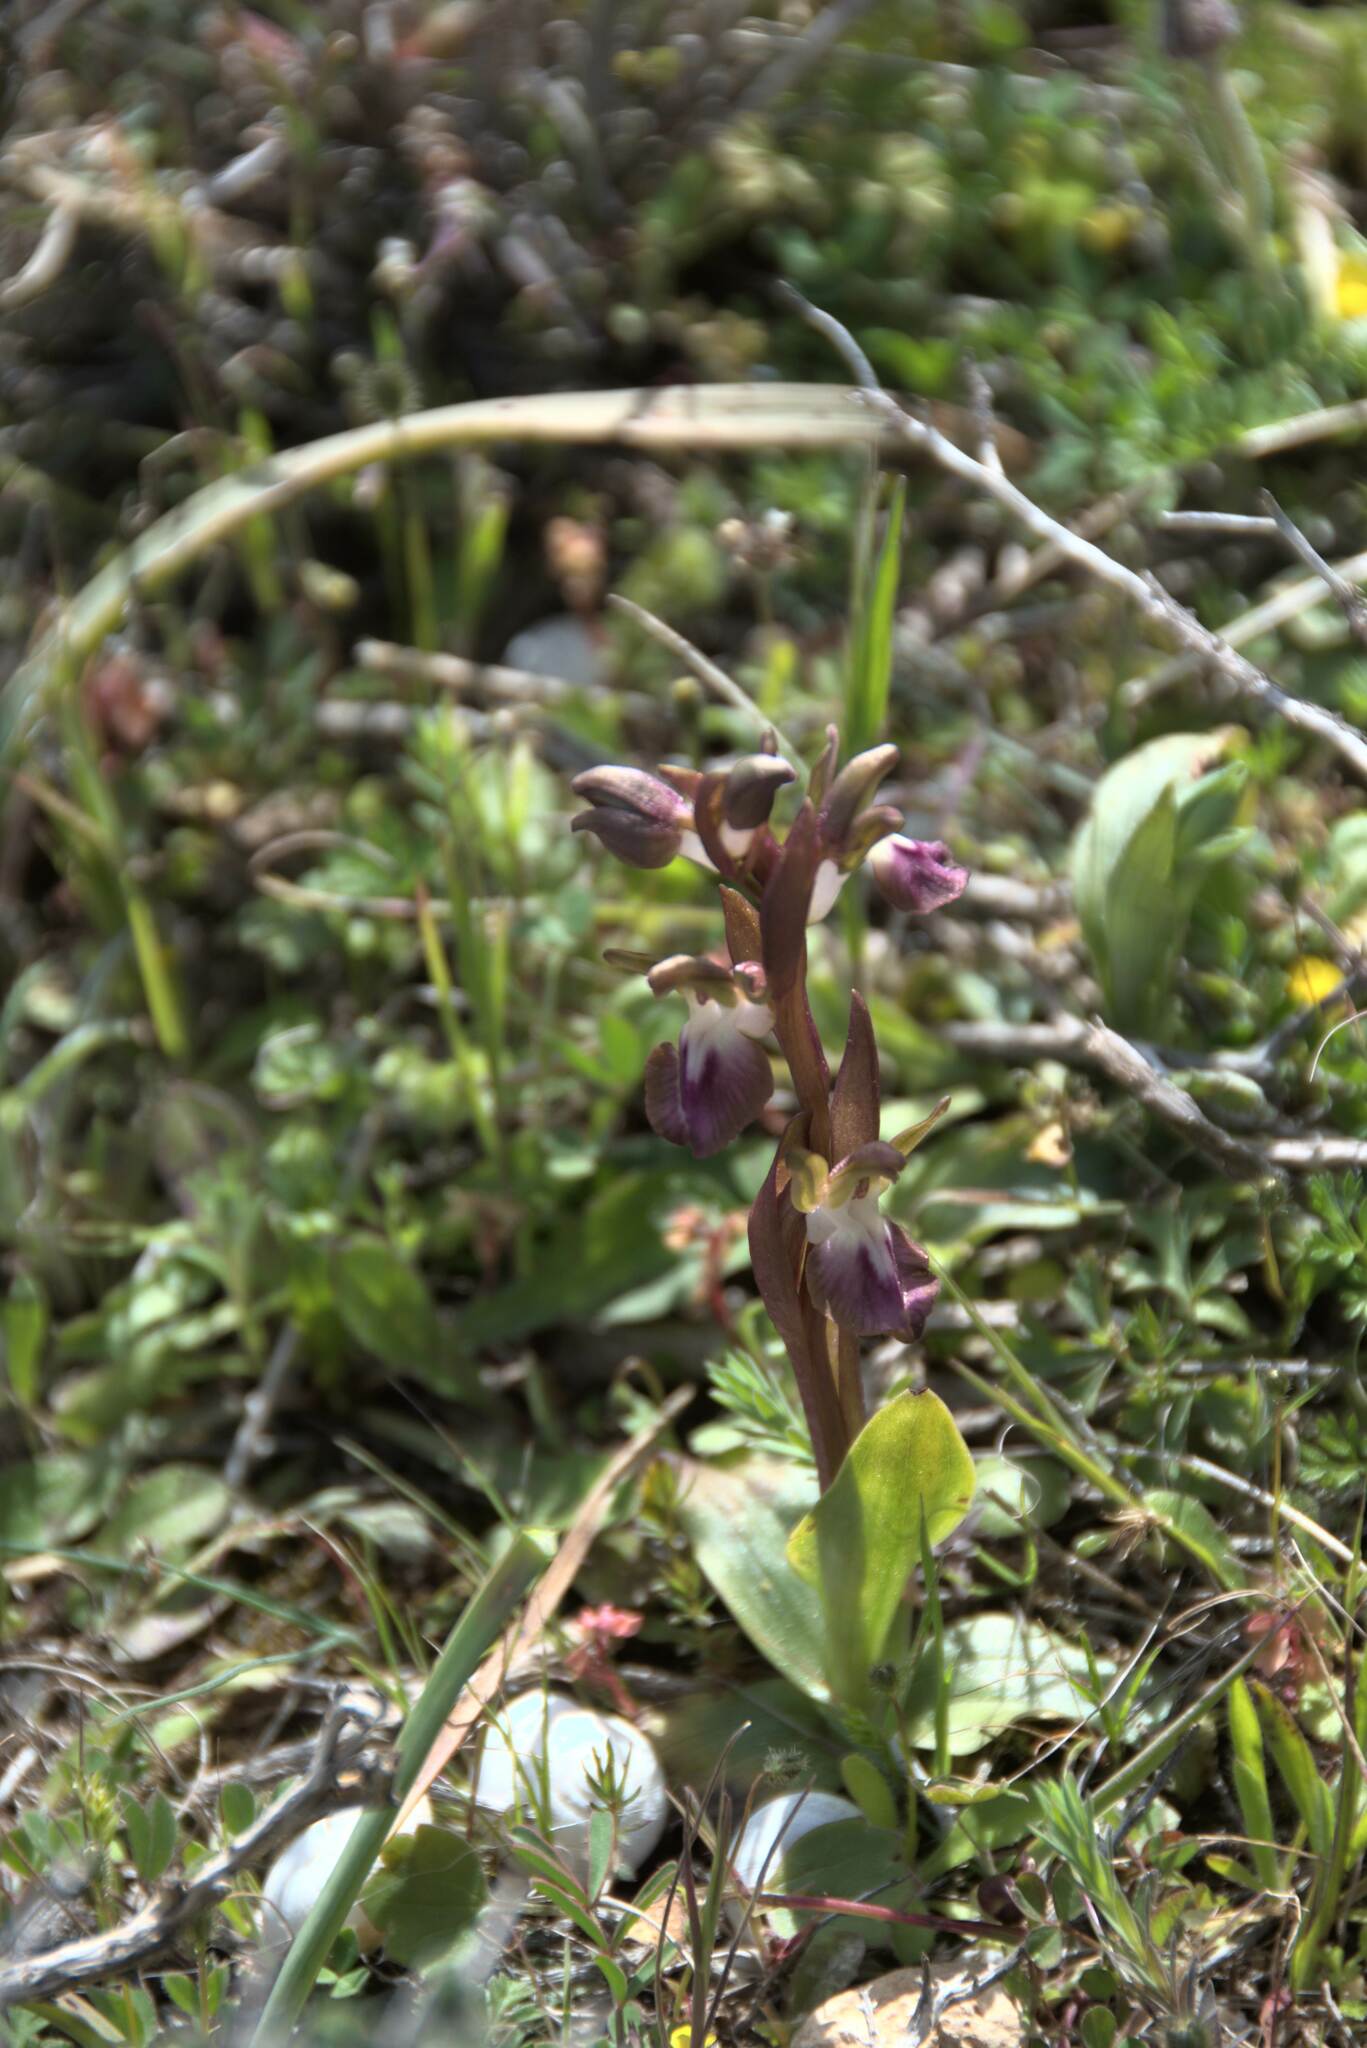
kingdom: Plantae
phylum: Tracheophyta
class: Liliopsida
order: Asparagales
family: Orchidaceae
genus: Anacamptis
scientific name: Anacamptis collina
